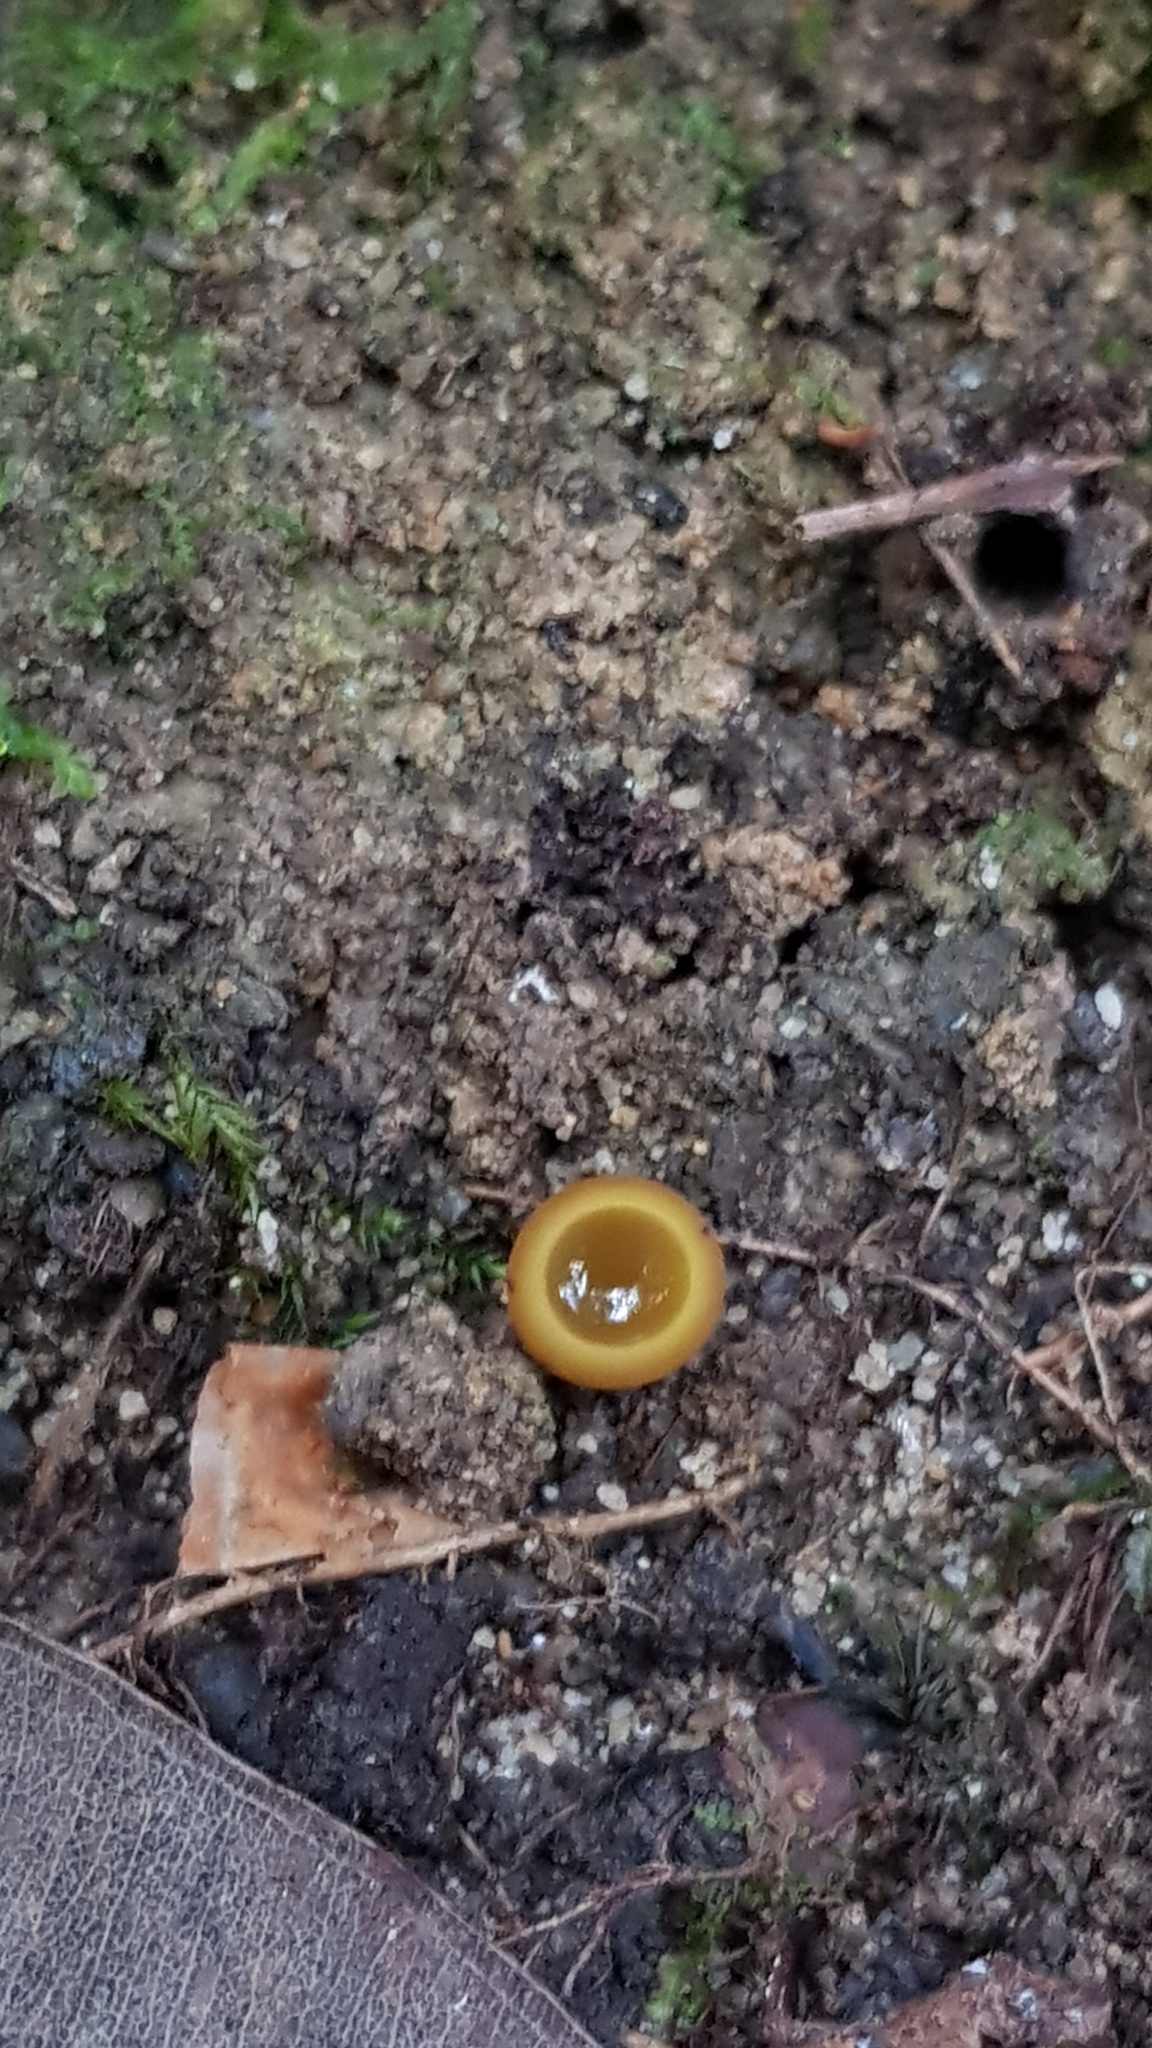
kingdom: Fungi
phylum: Ascomycota
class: Pezizomycetes
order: Pezizales
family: Pyronemataceae
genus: Aleurina
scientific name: Aleurina ferruginea
